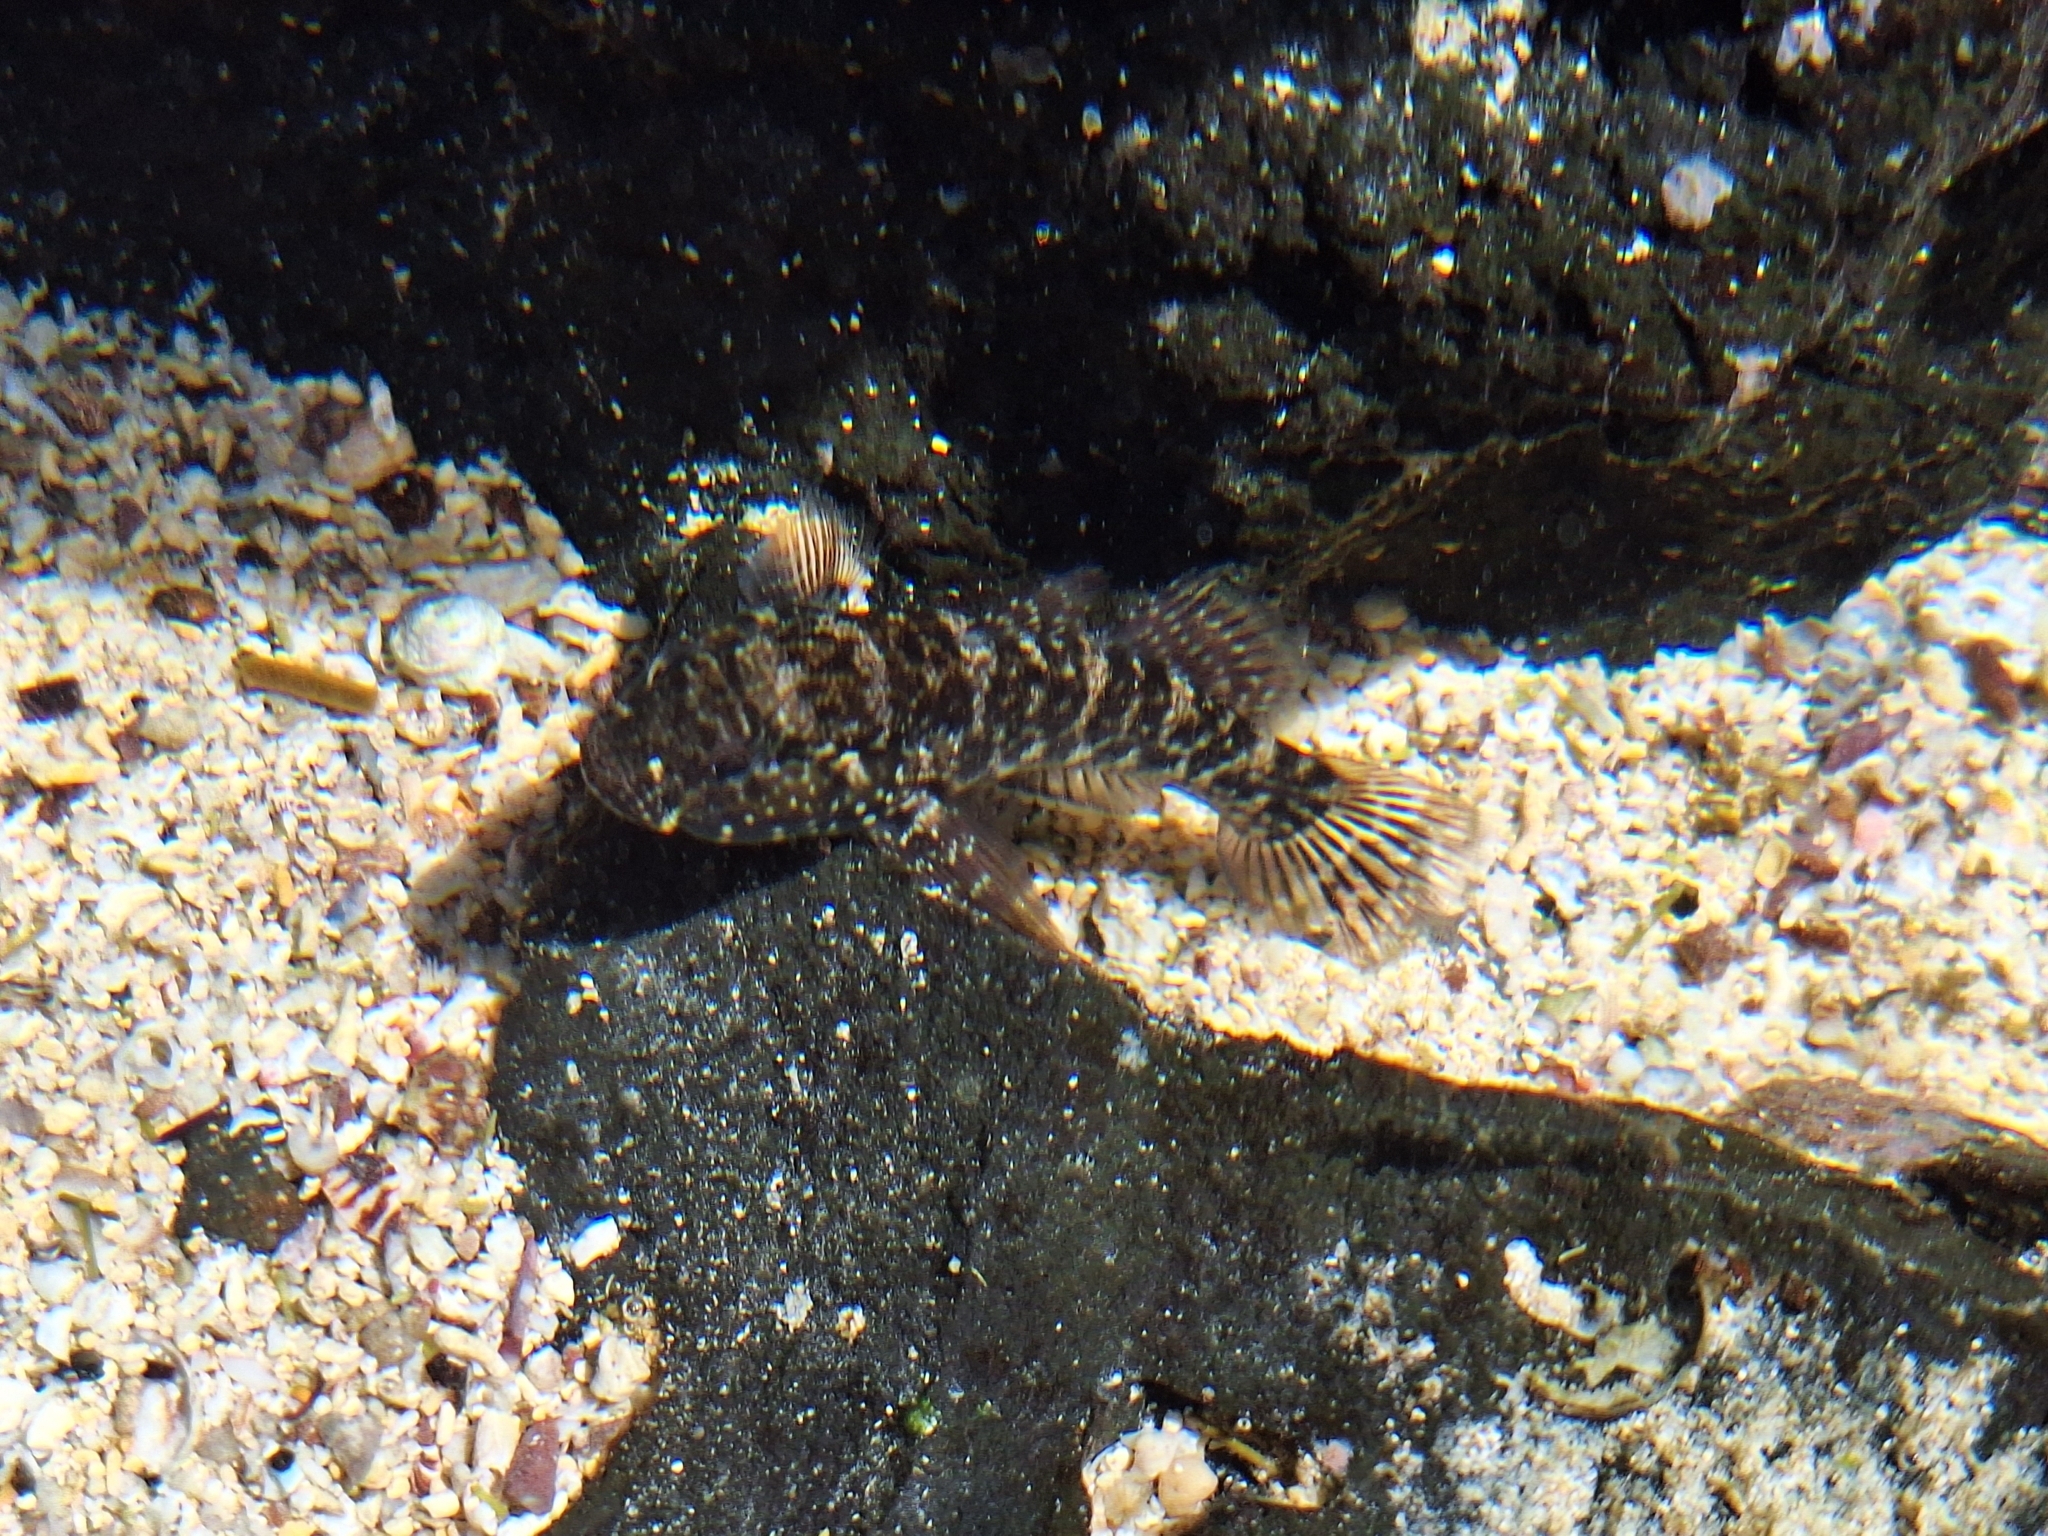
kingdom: Animalia
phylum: Chordata
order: Perciformes
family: Gobiidae
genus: Bathygobius
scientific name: Bathygobius lineatus
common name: Southern frillfin
